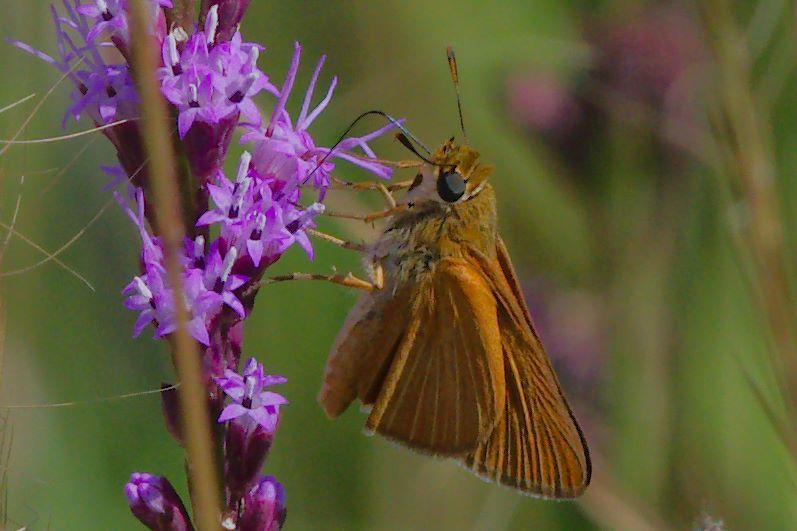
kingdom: Animalia
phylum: Arthropoda
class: Insecta
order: Lepidoptera
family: Hesperiidae
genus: Euphyes
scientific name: Euphyes arpa
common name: Palmetto skipper
